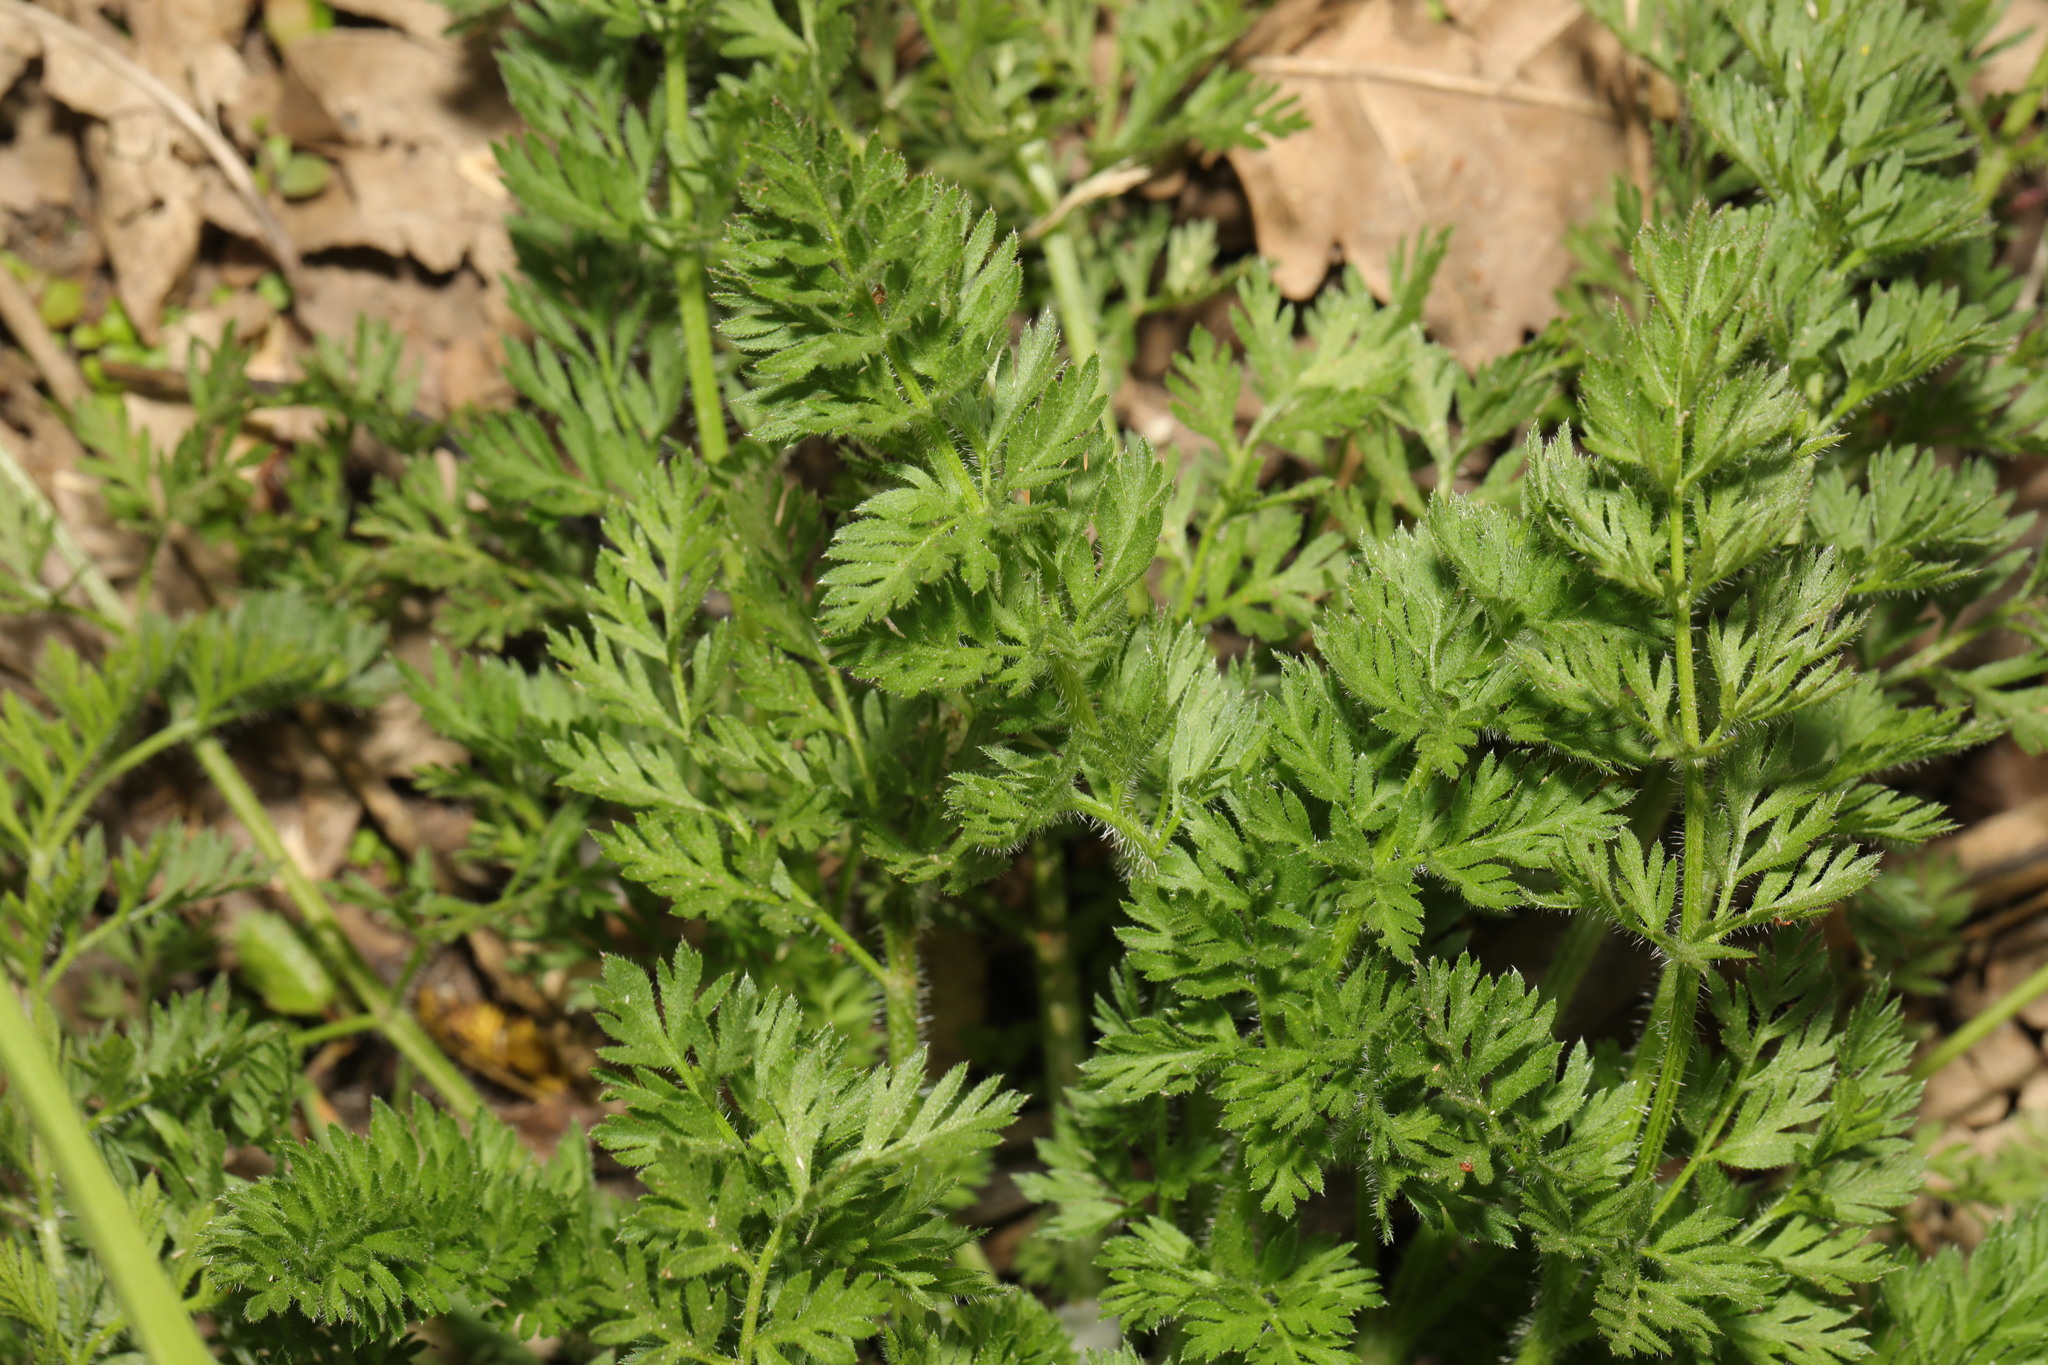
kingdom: Plantae
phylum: Tracheophyta
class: Magnoliopsida
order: Apiales
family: Apiaceae
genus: Daucus
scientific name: Daucus carota
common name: Wild carrot
